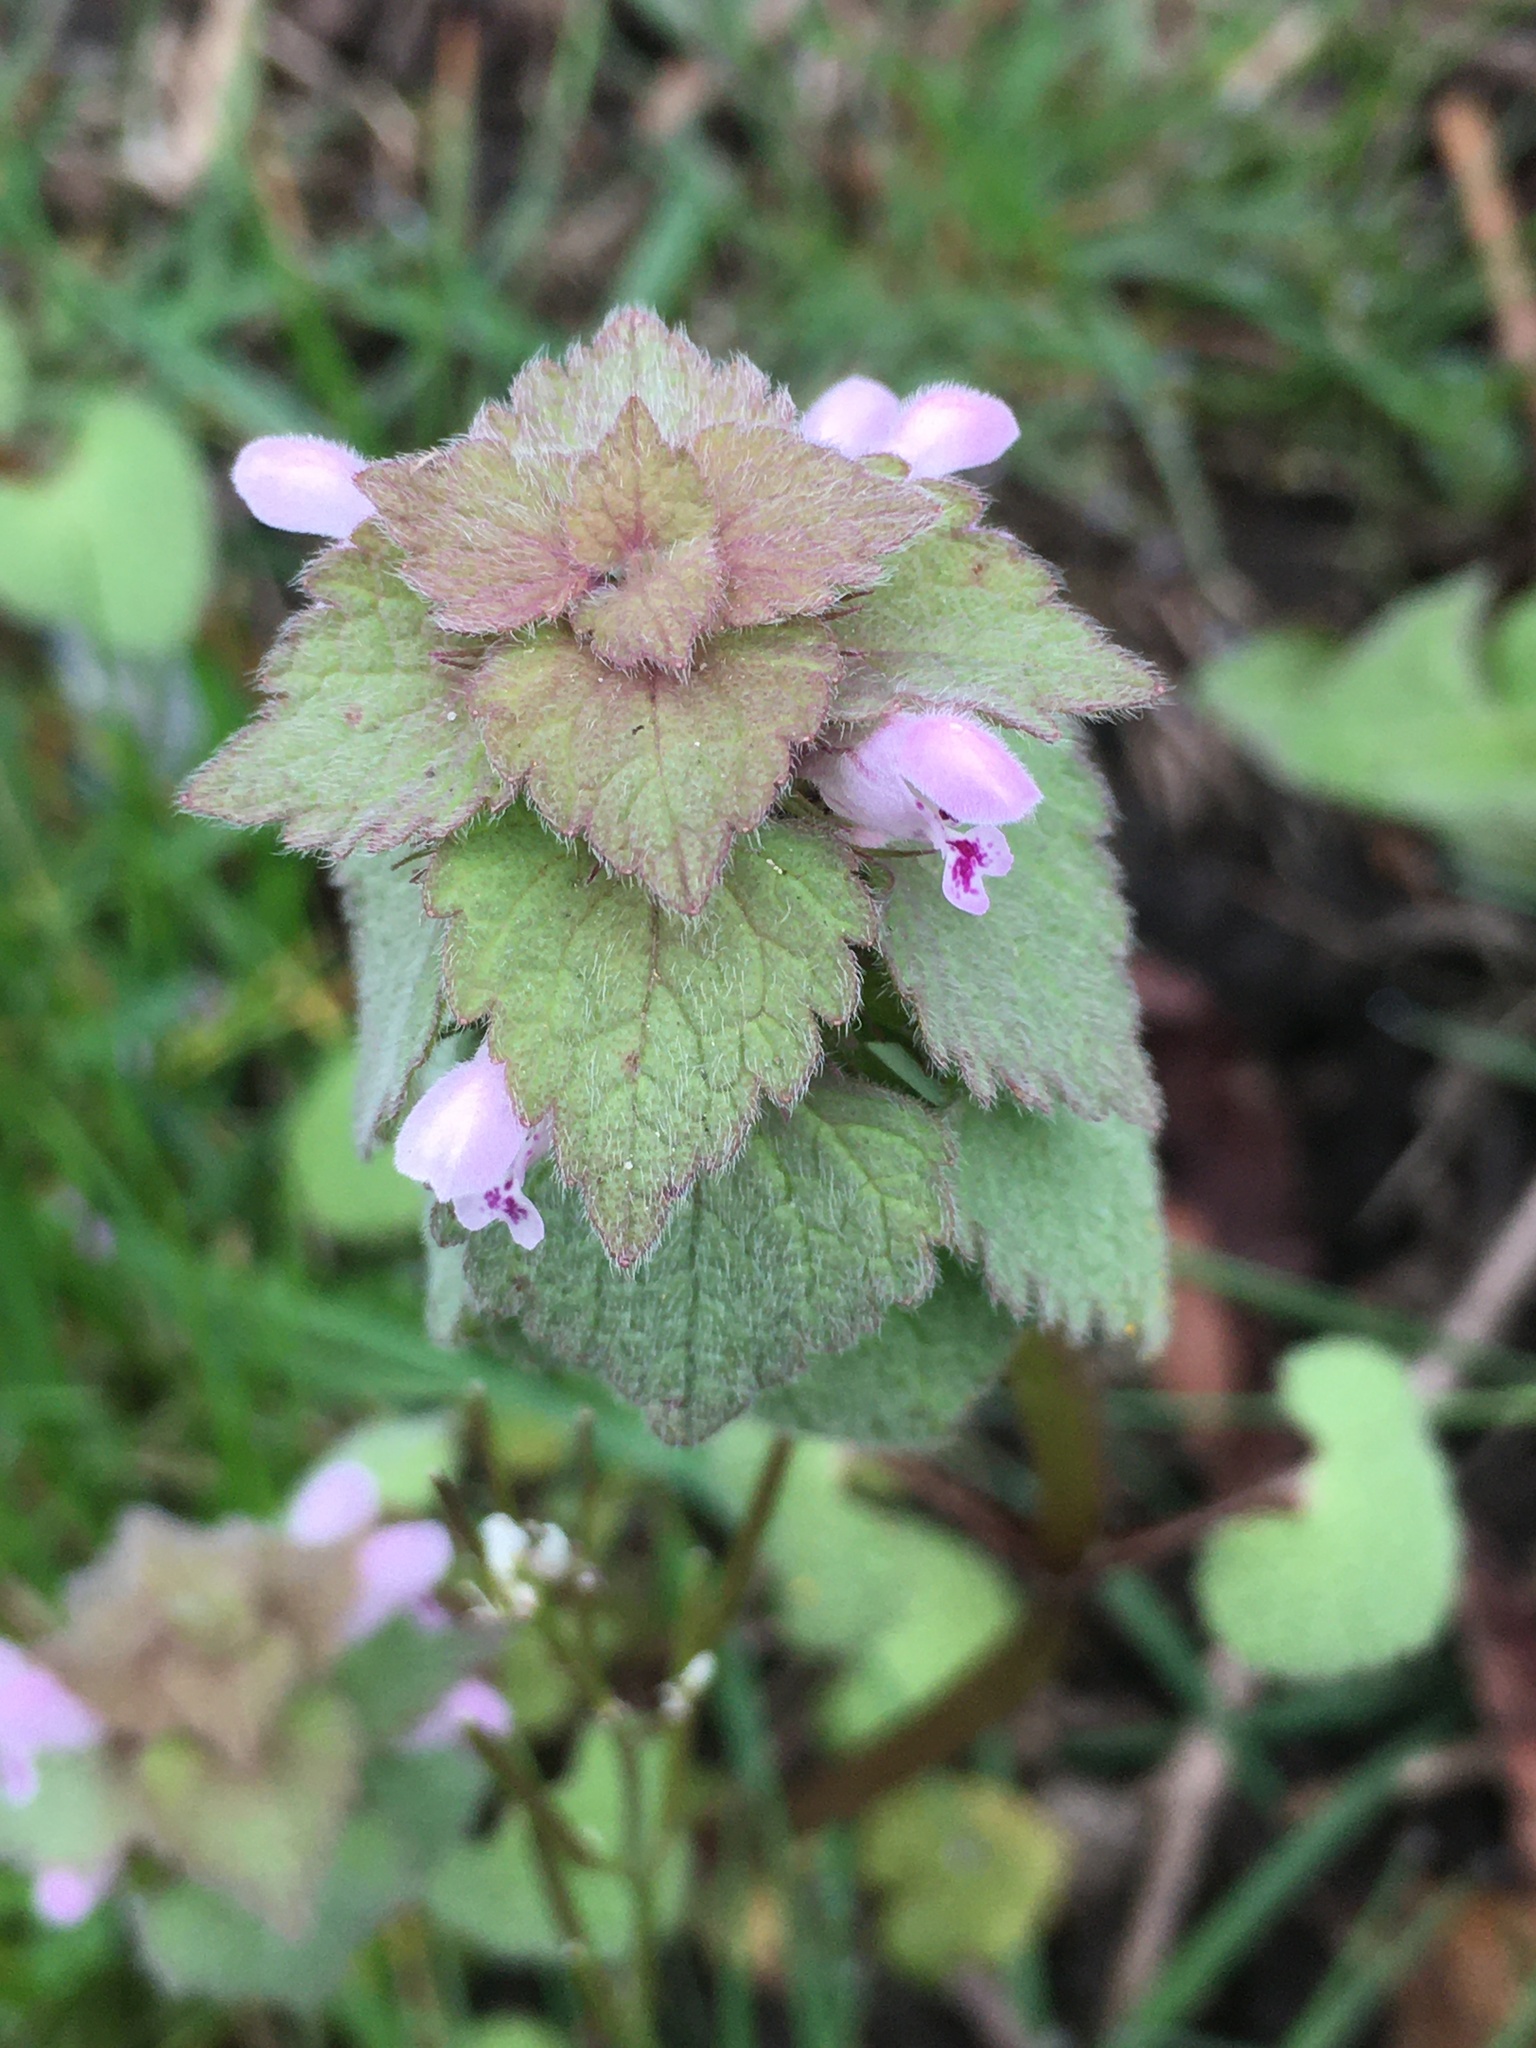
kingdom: Plantae
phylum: Tracheophyta
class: Magnoliopsida
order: Lamiales
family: Lamiaceae
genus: Lamium
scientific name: Lamium purpureum
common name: Red dead-nettle
